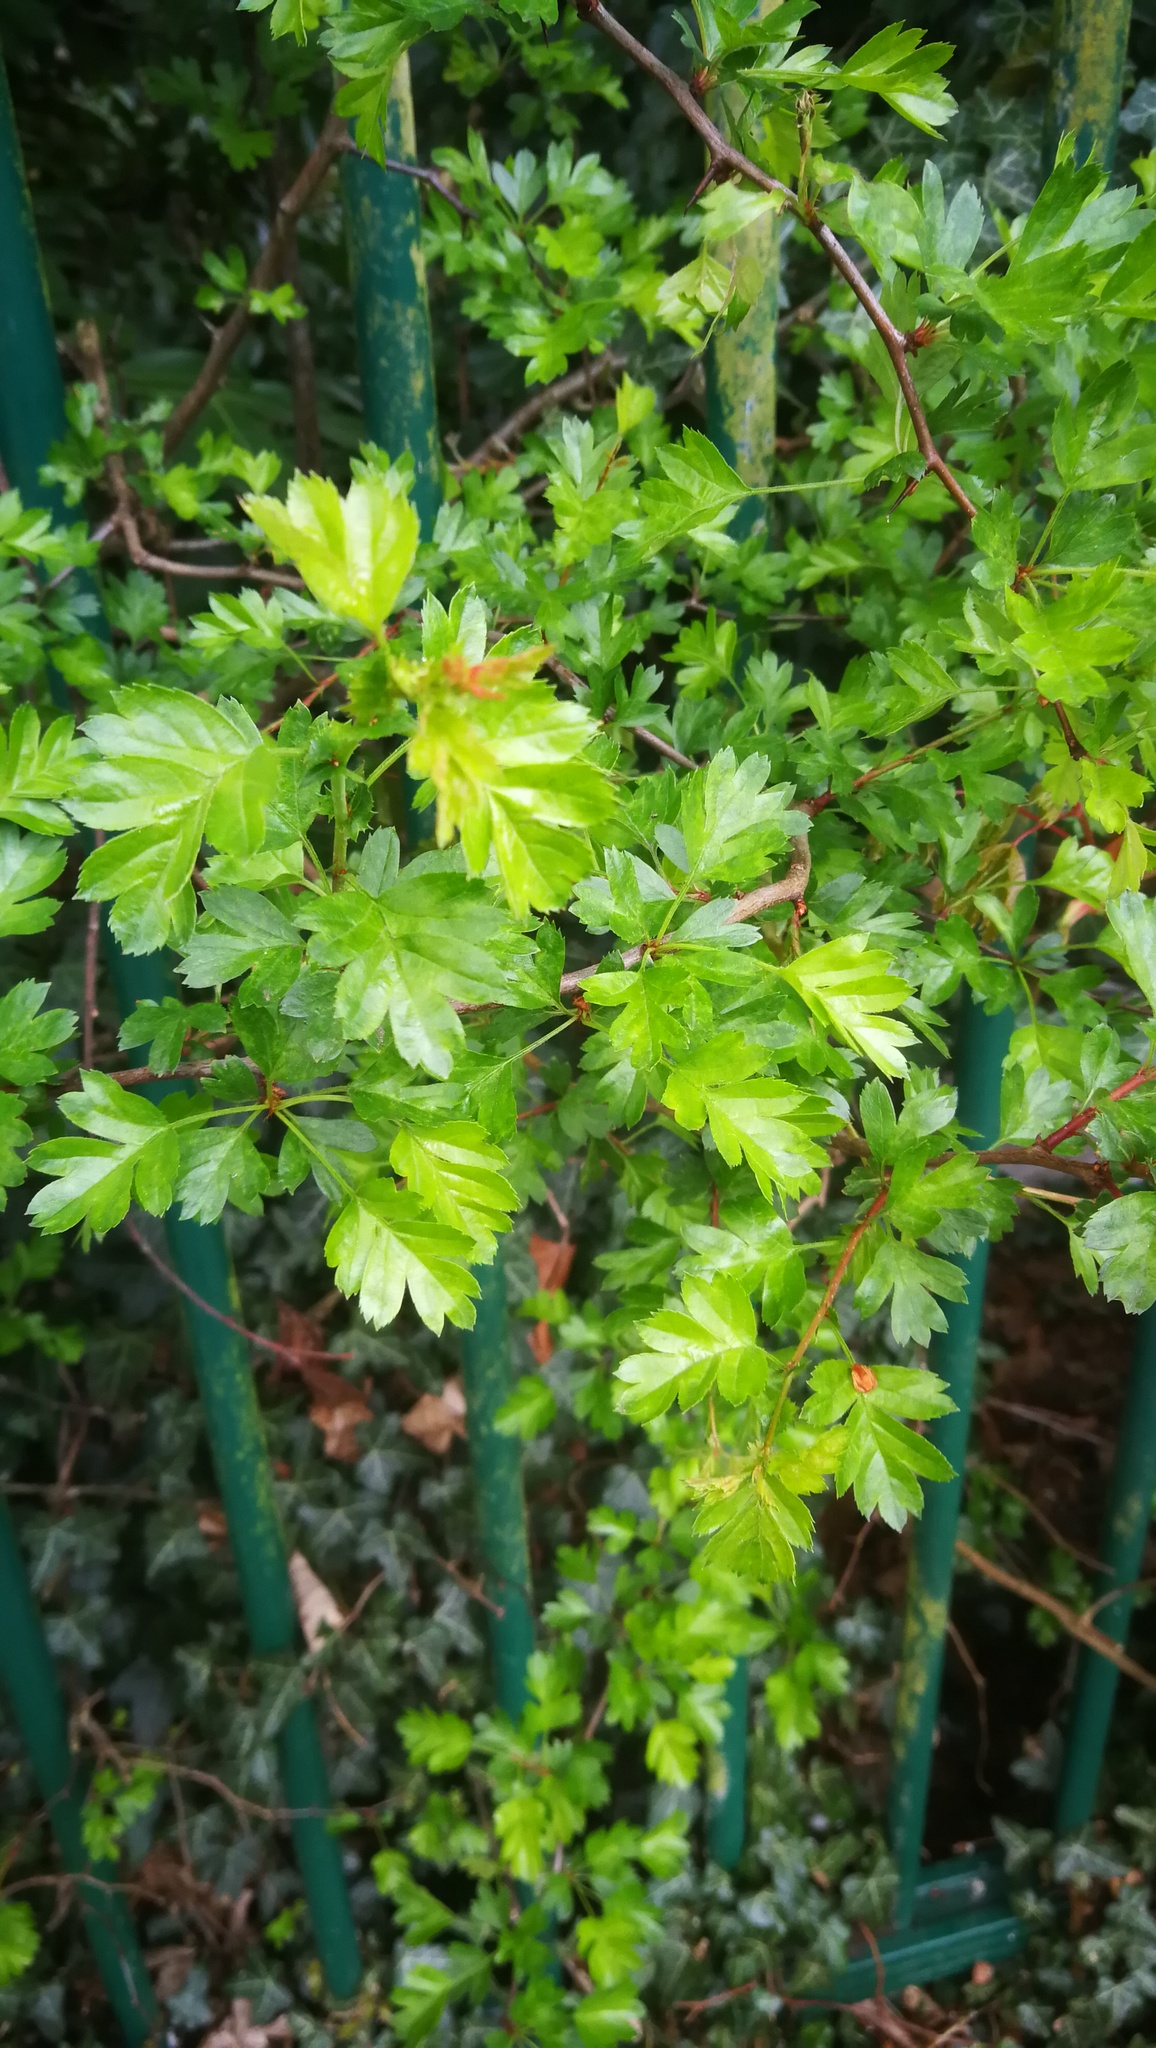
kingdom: Plantae
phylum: Tracheophyta
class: Magnoliopsida
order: Rosales
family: Rosaceae
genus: Crataegus
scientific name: Crataegus monogyna
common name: Hawthorn
